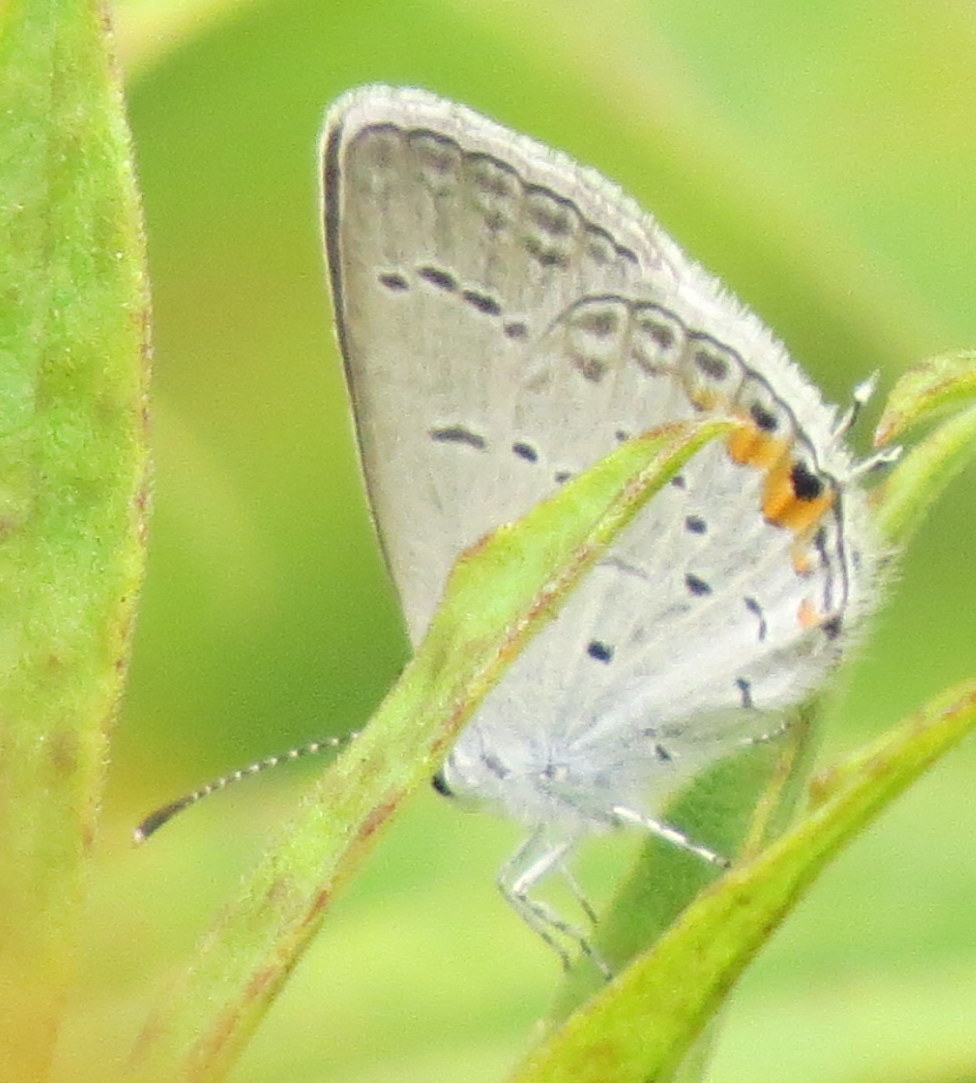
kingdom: Animalia
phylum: Arthropoda
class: Insecta
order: Lepidoptera
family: Lycaenidae
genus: Elkalyce
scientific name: Elkalyce comyntas
